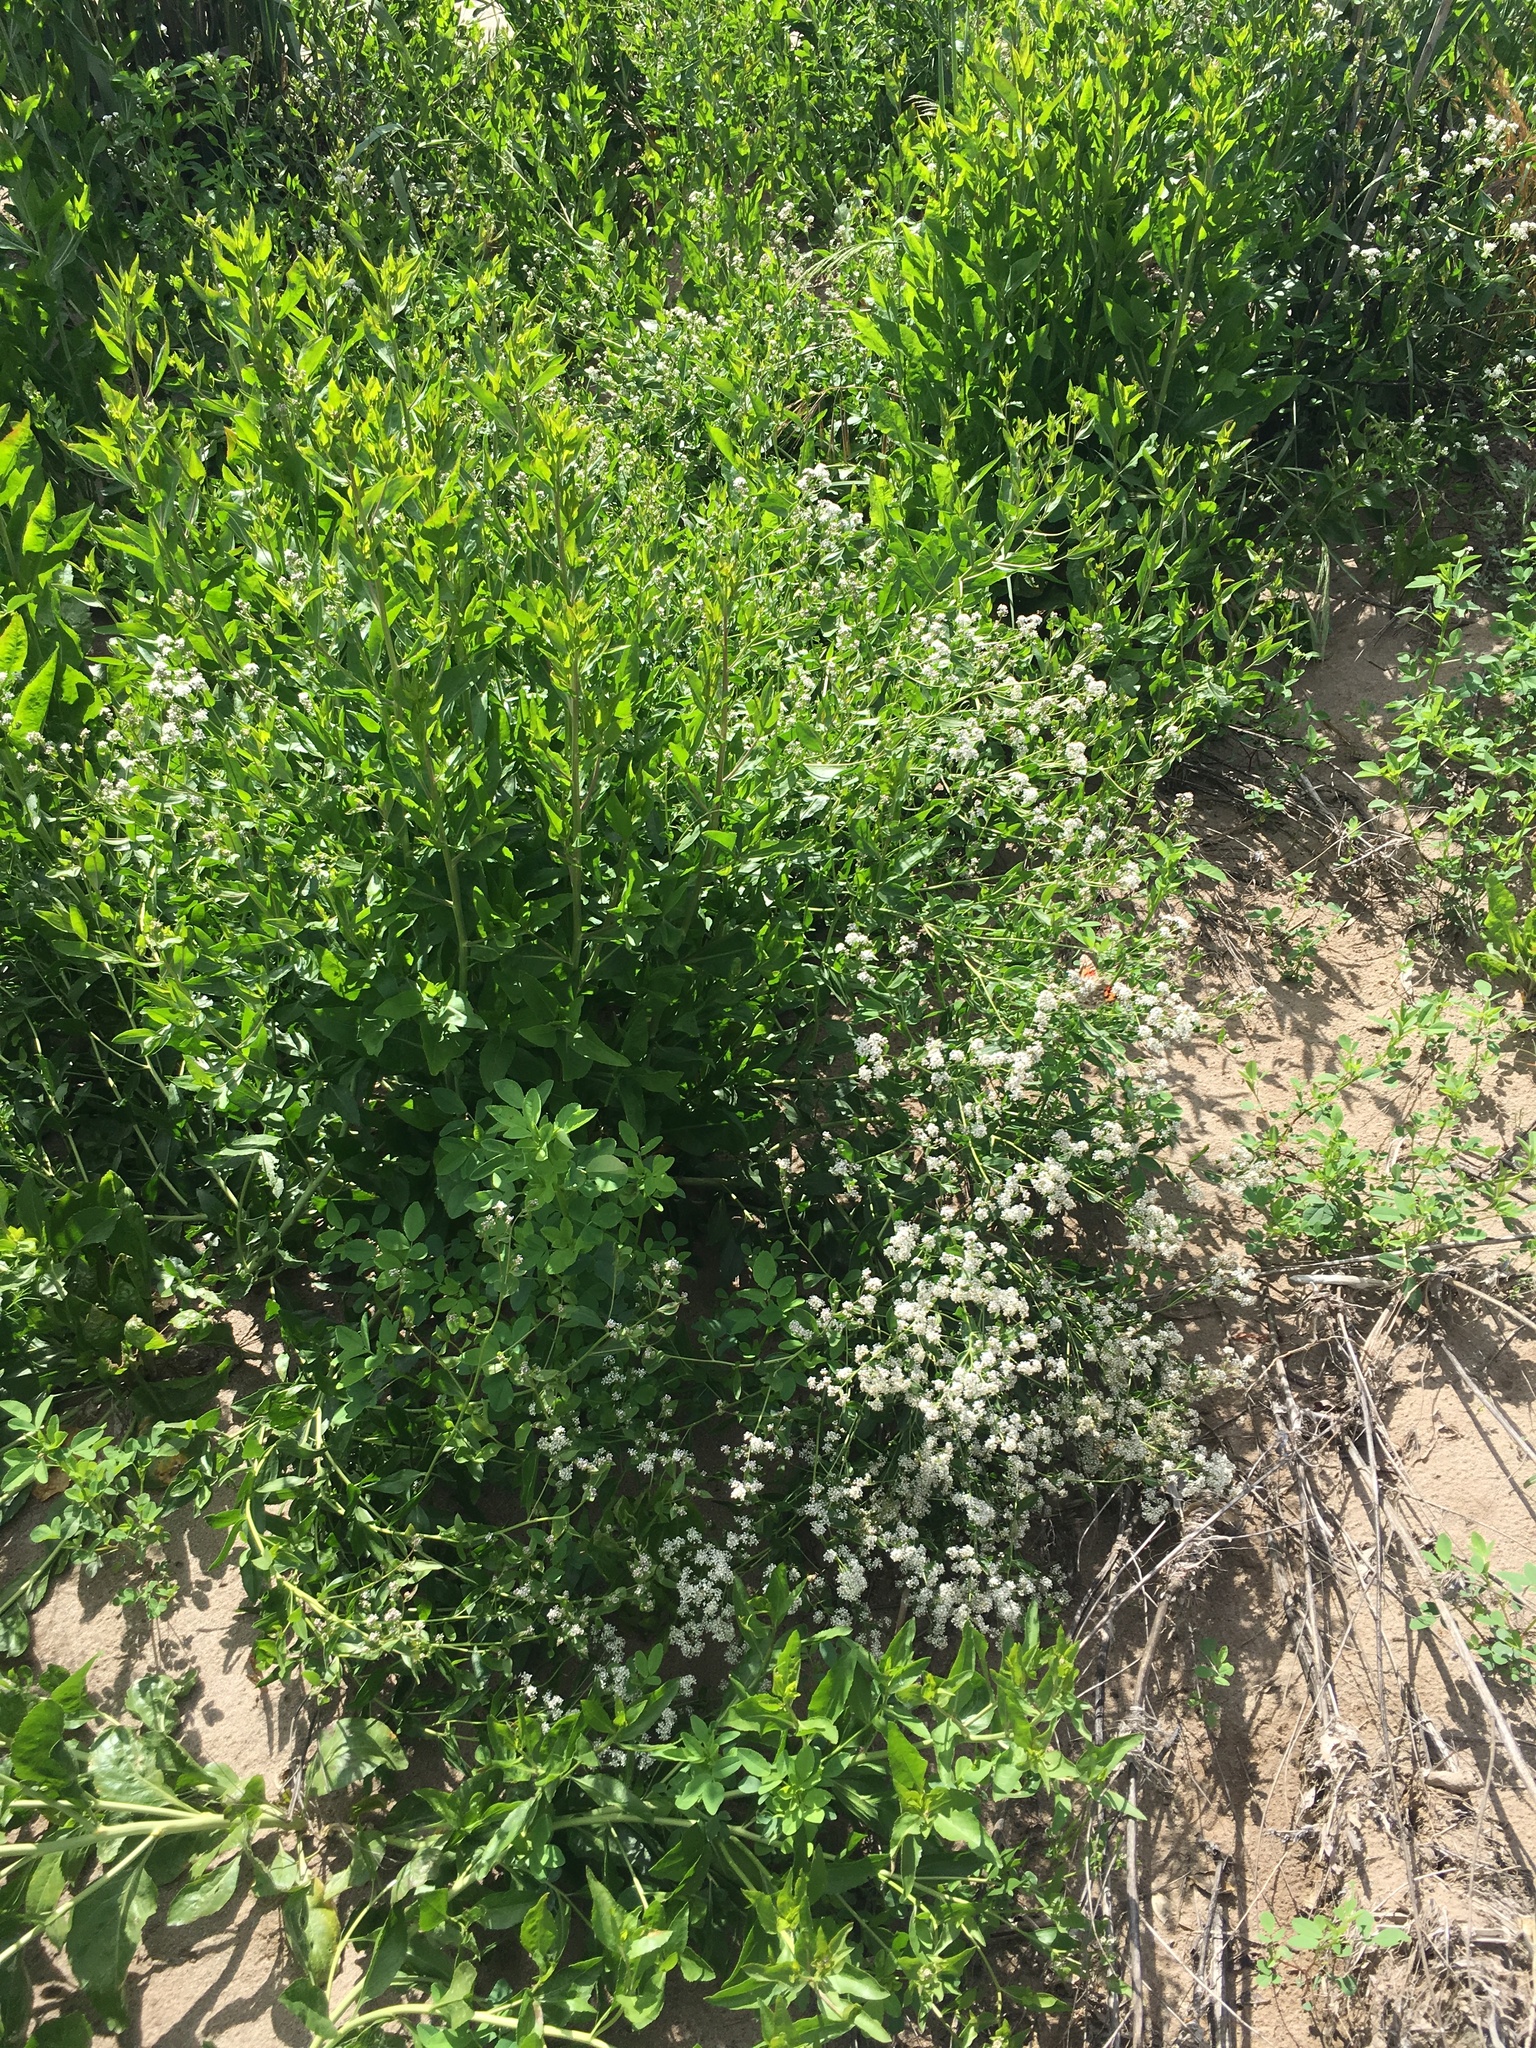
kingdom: Plantae
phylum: Tracheophyta
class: Magnoliopsida
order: Brassicales
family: Brassicaceae
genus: Lepidium
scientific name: Lepidium latifolium
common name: Dittander
